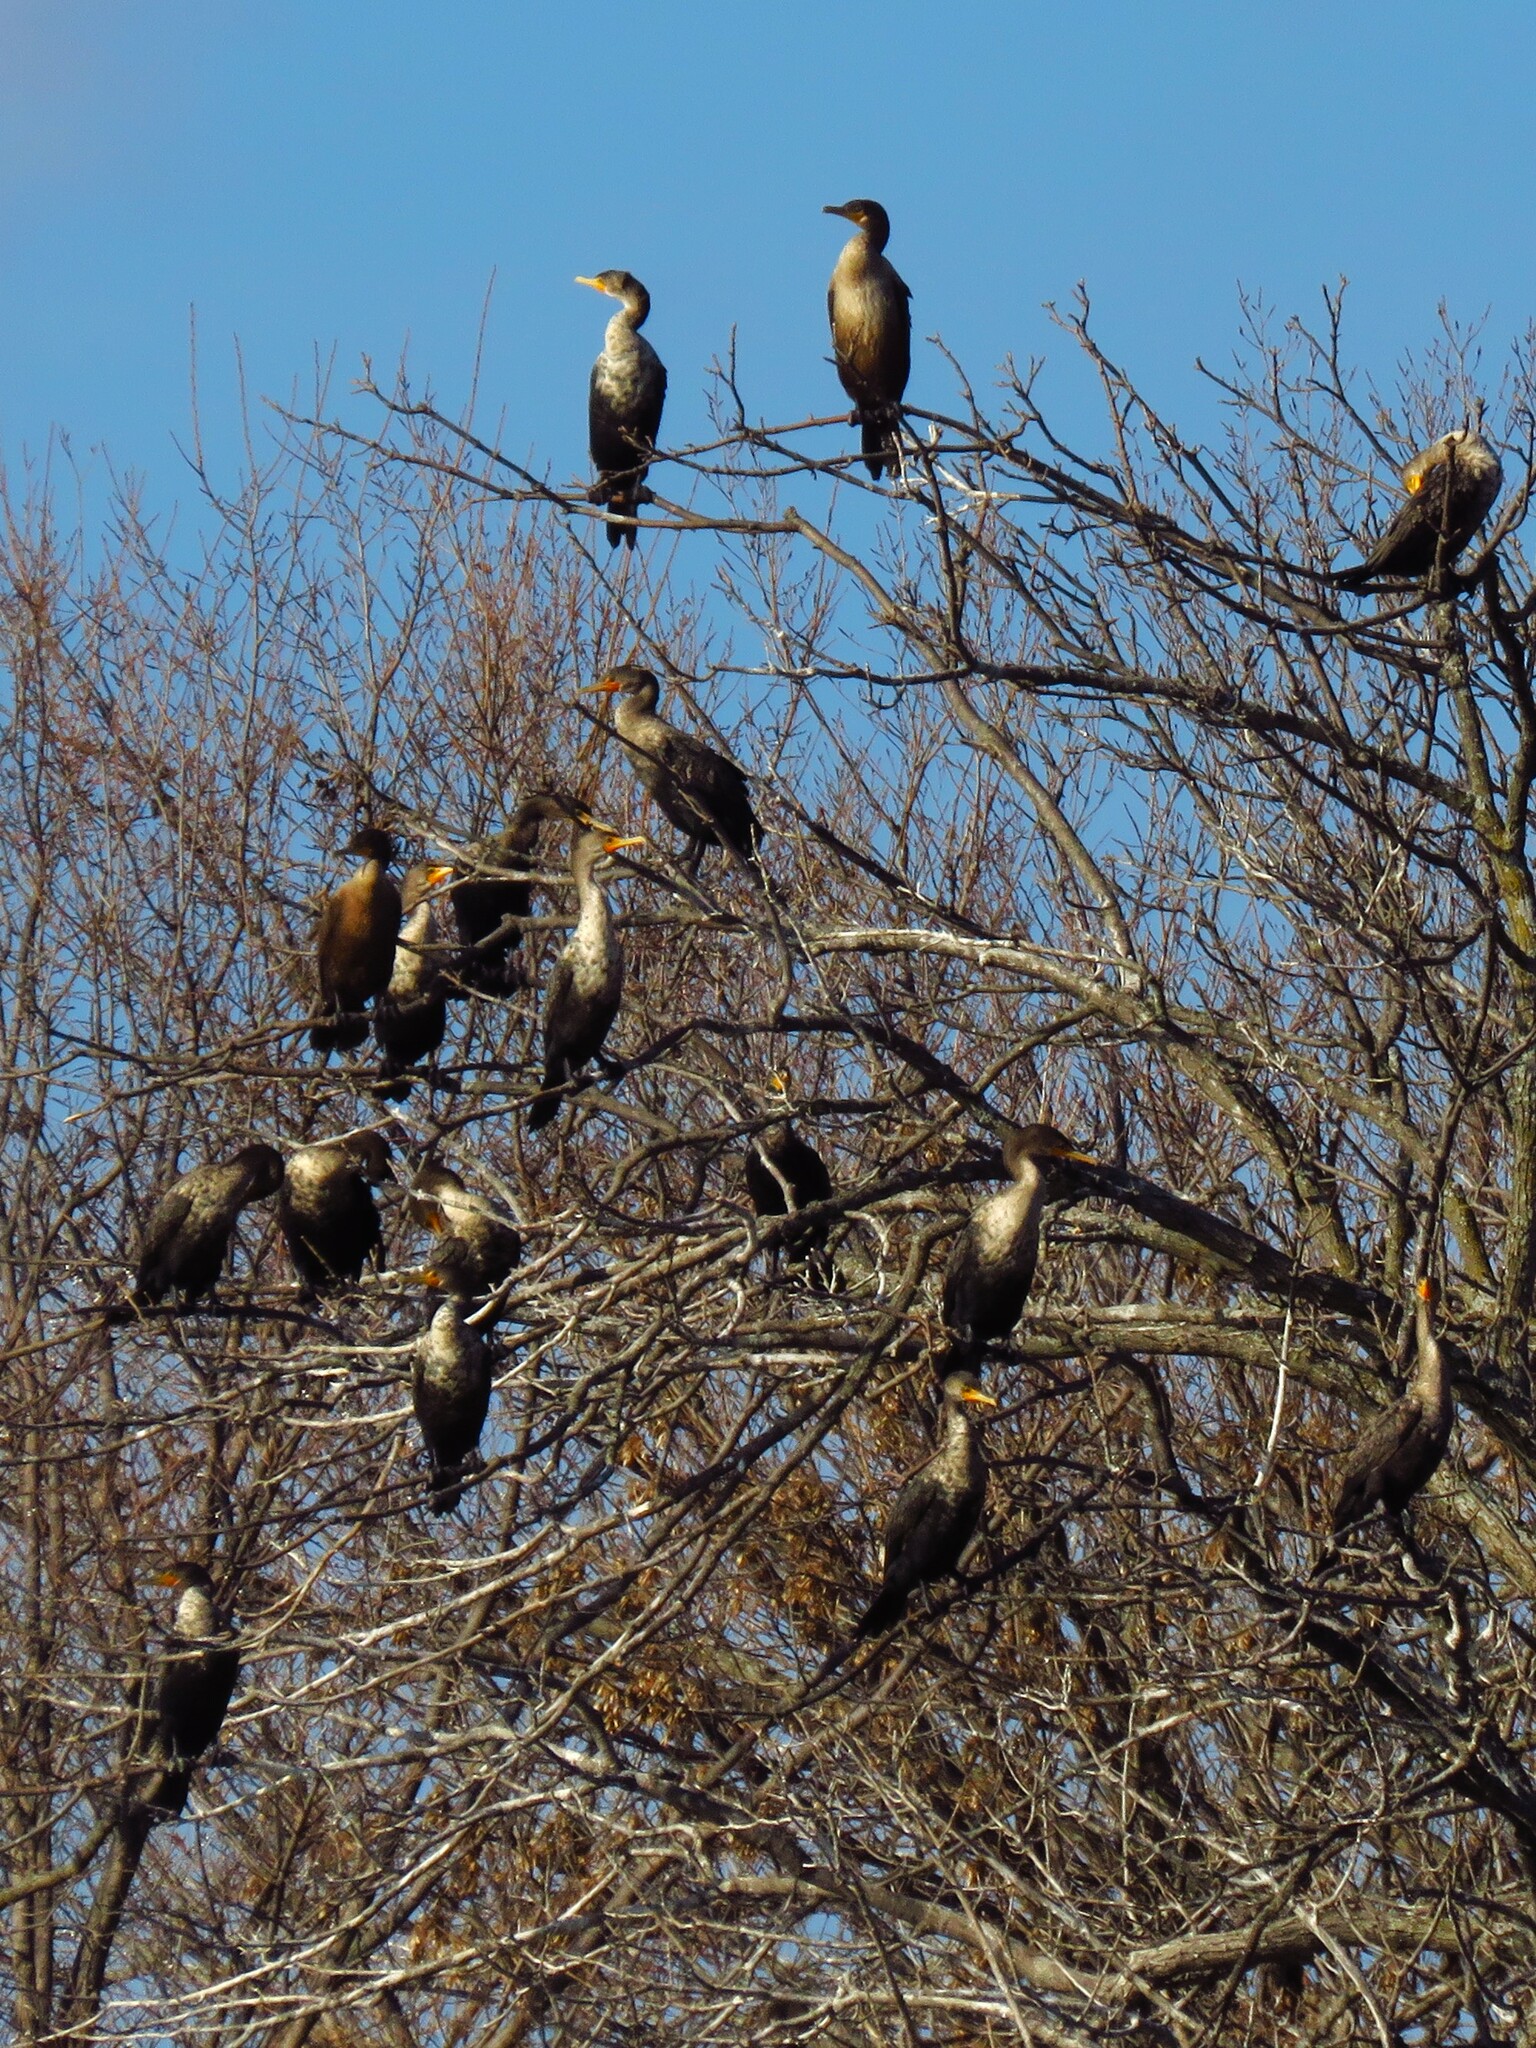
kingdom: Animalia
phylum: Chordata
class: Aves
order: Suliformes
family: Phalacrocoracidae
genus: Phalacrocorax
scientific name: Phalacrocorax auritus
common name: Double-crested cormorant
